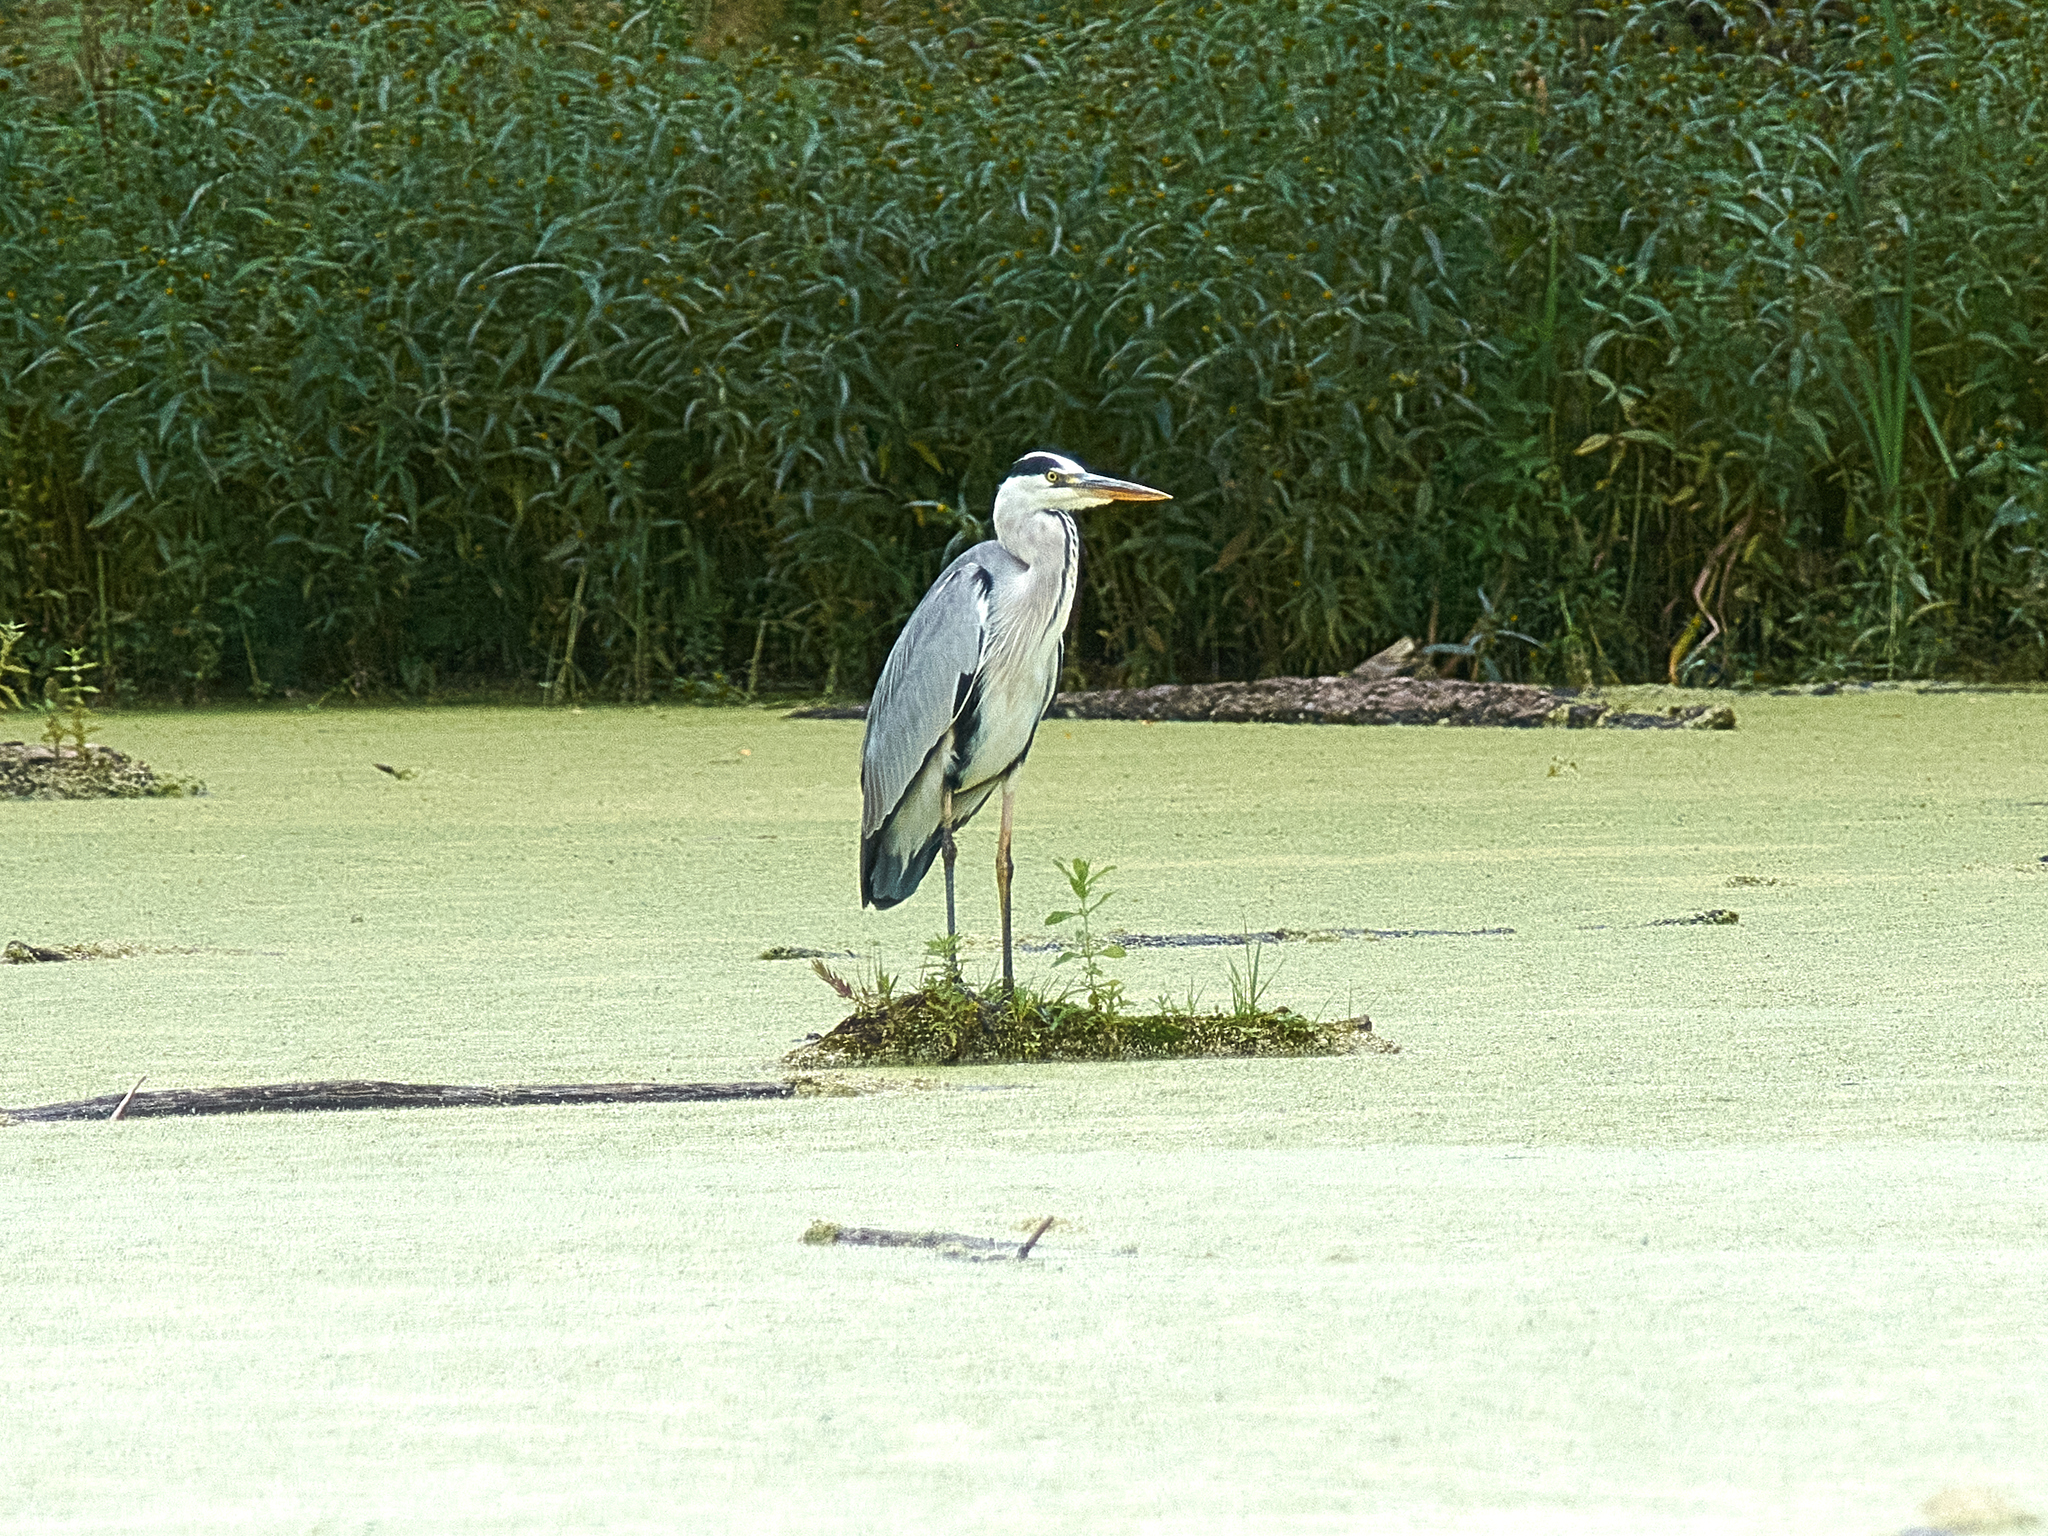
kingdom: Animalia
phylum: Chordata
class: Aves
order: Pelecaniformes
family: Ardeidae
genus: Ardea
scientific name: Ardea cinerea
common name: Grey heron
